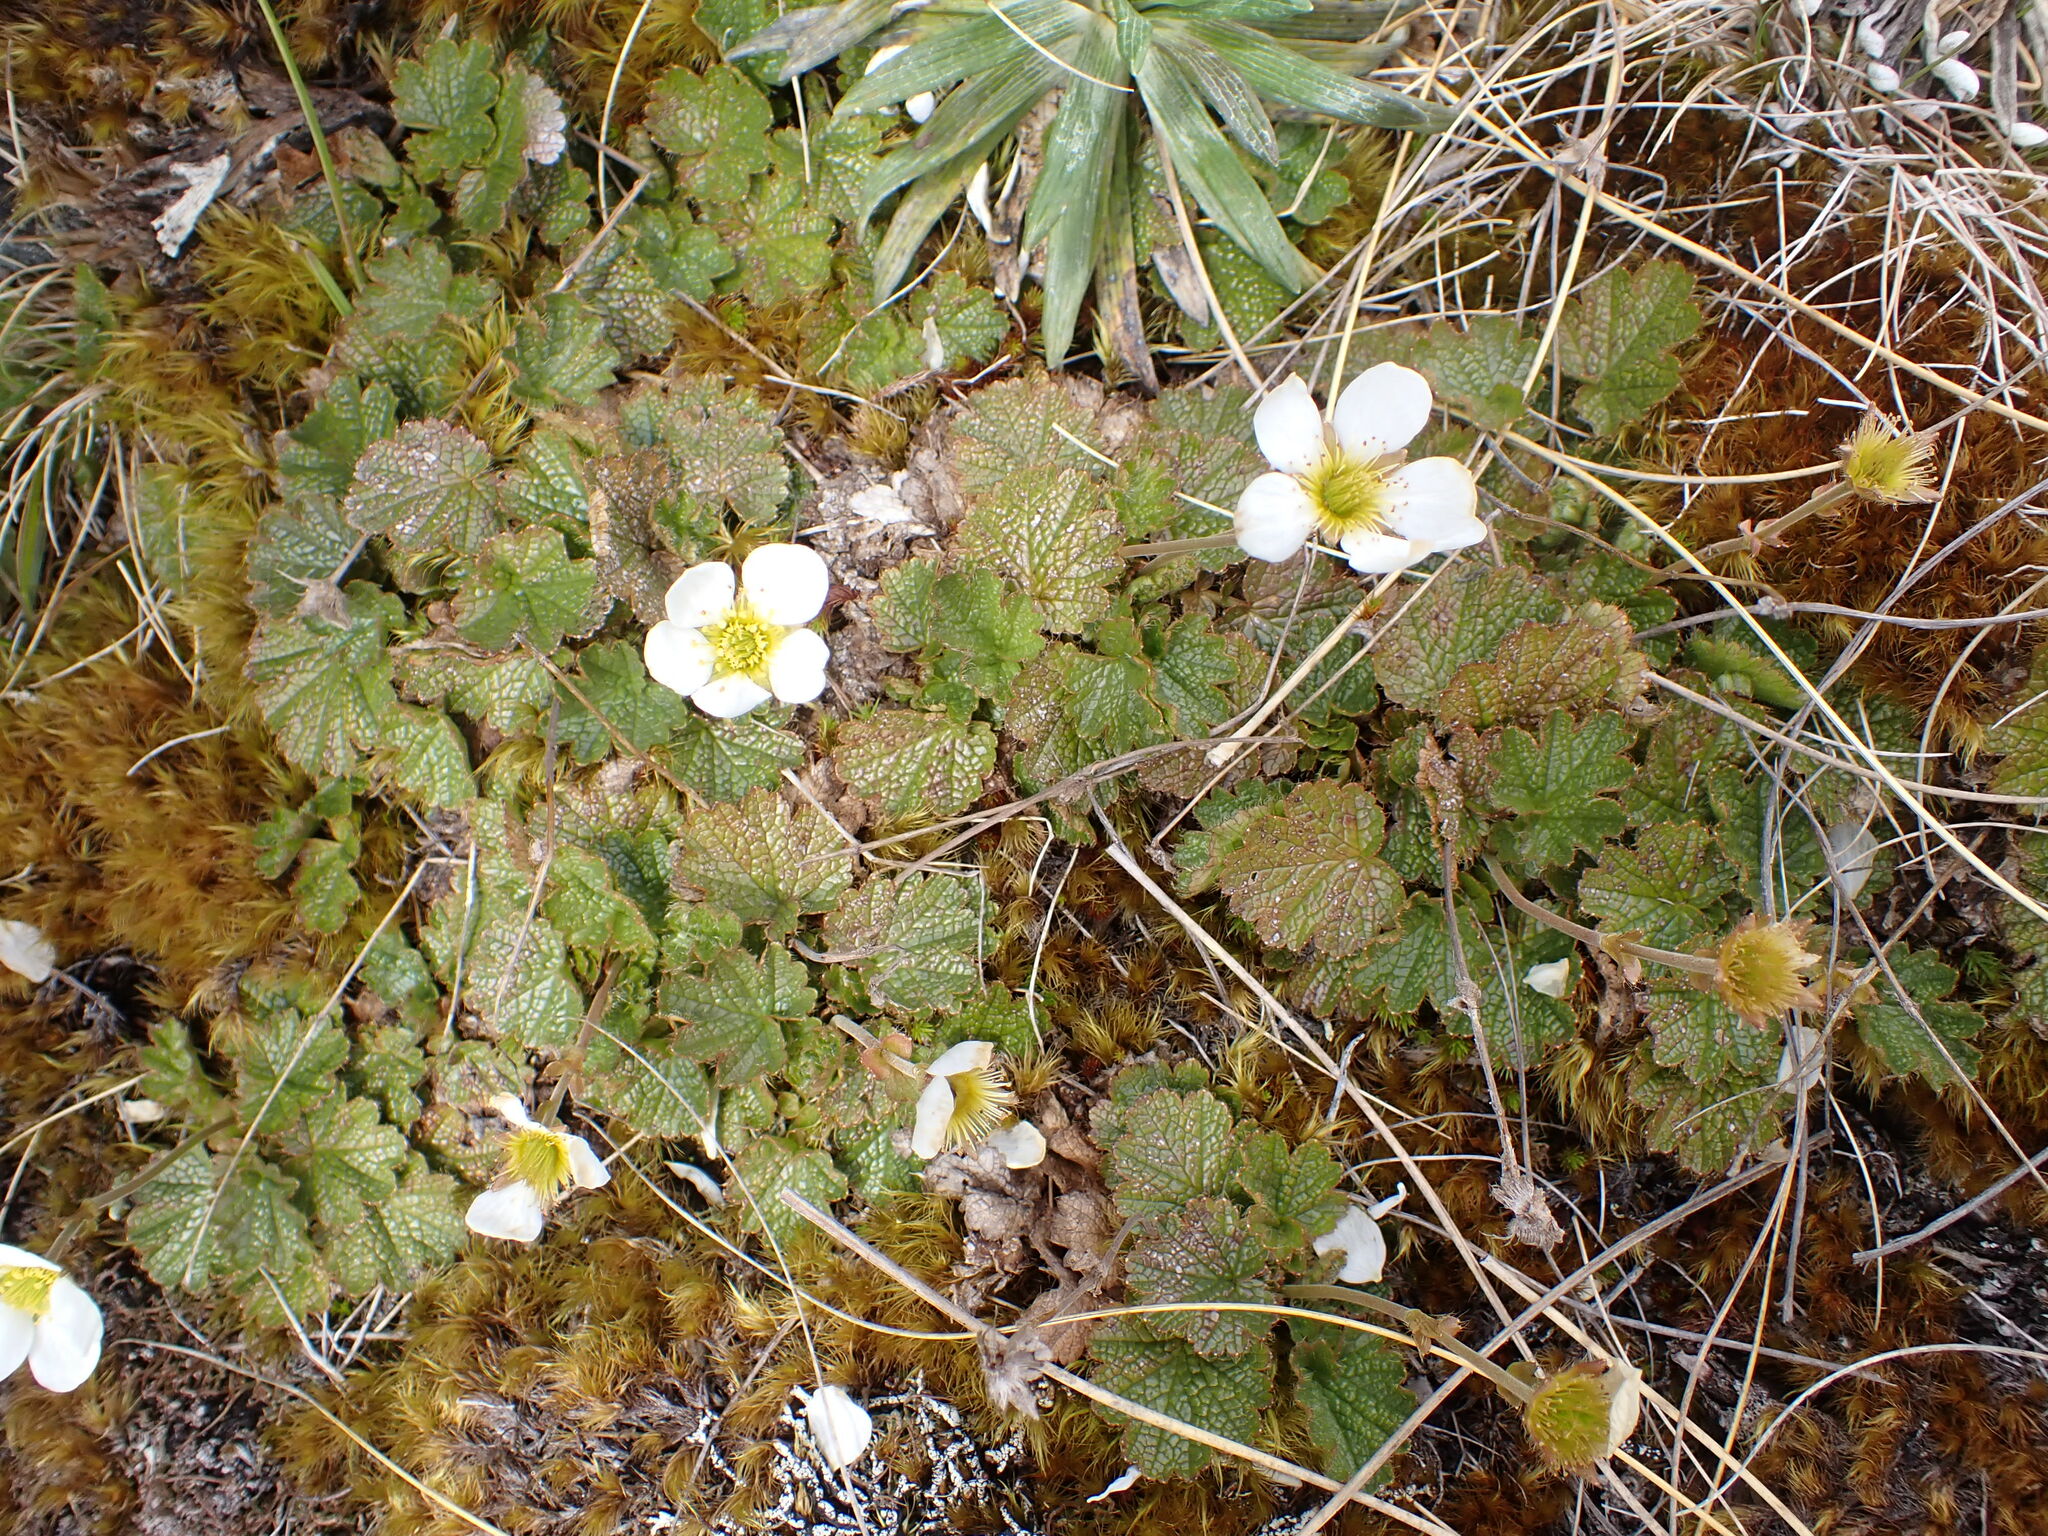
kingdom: Plantae
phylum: Tracheophyta
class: Magnoliopsida
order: Rosales
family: Rosaceae
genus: Geum
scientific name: Geum uniflorum
